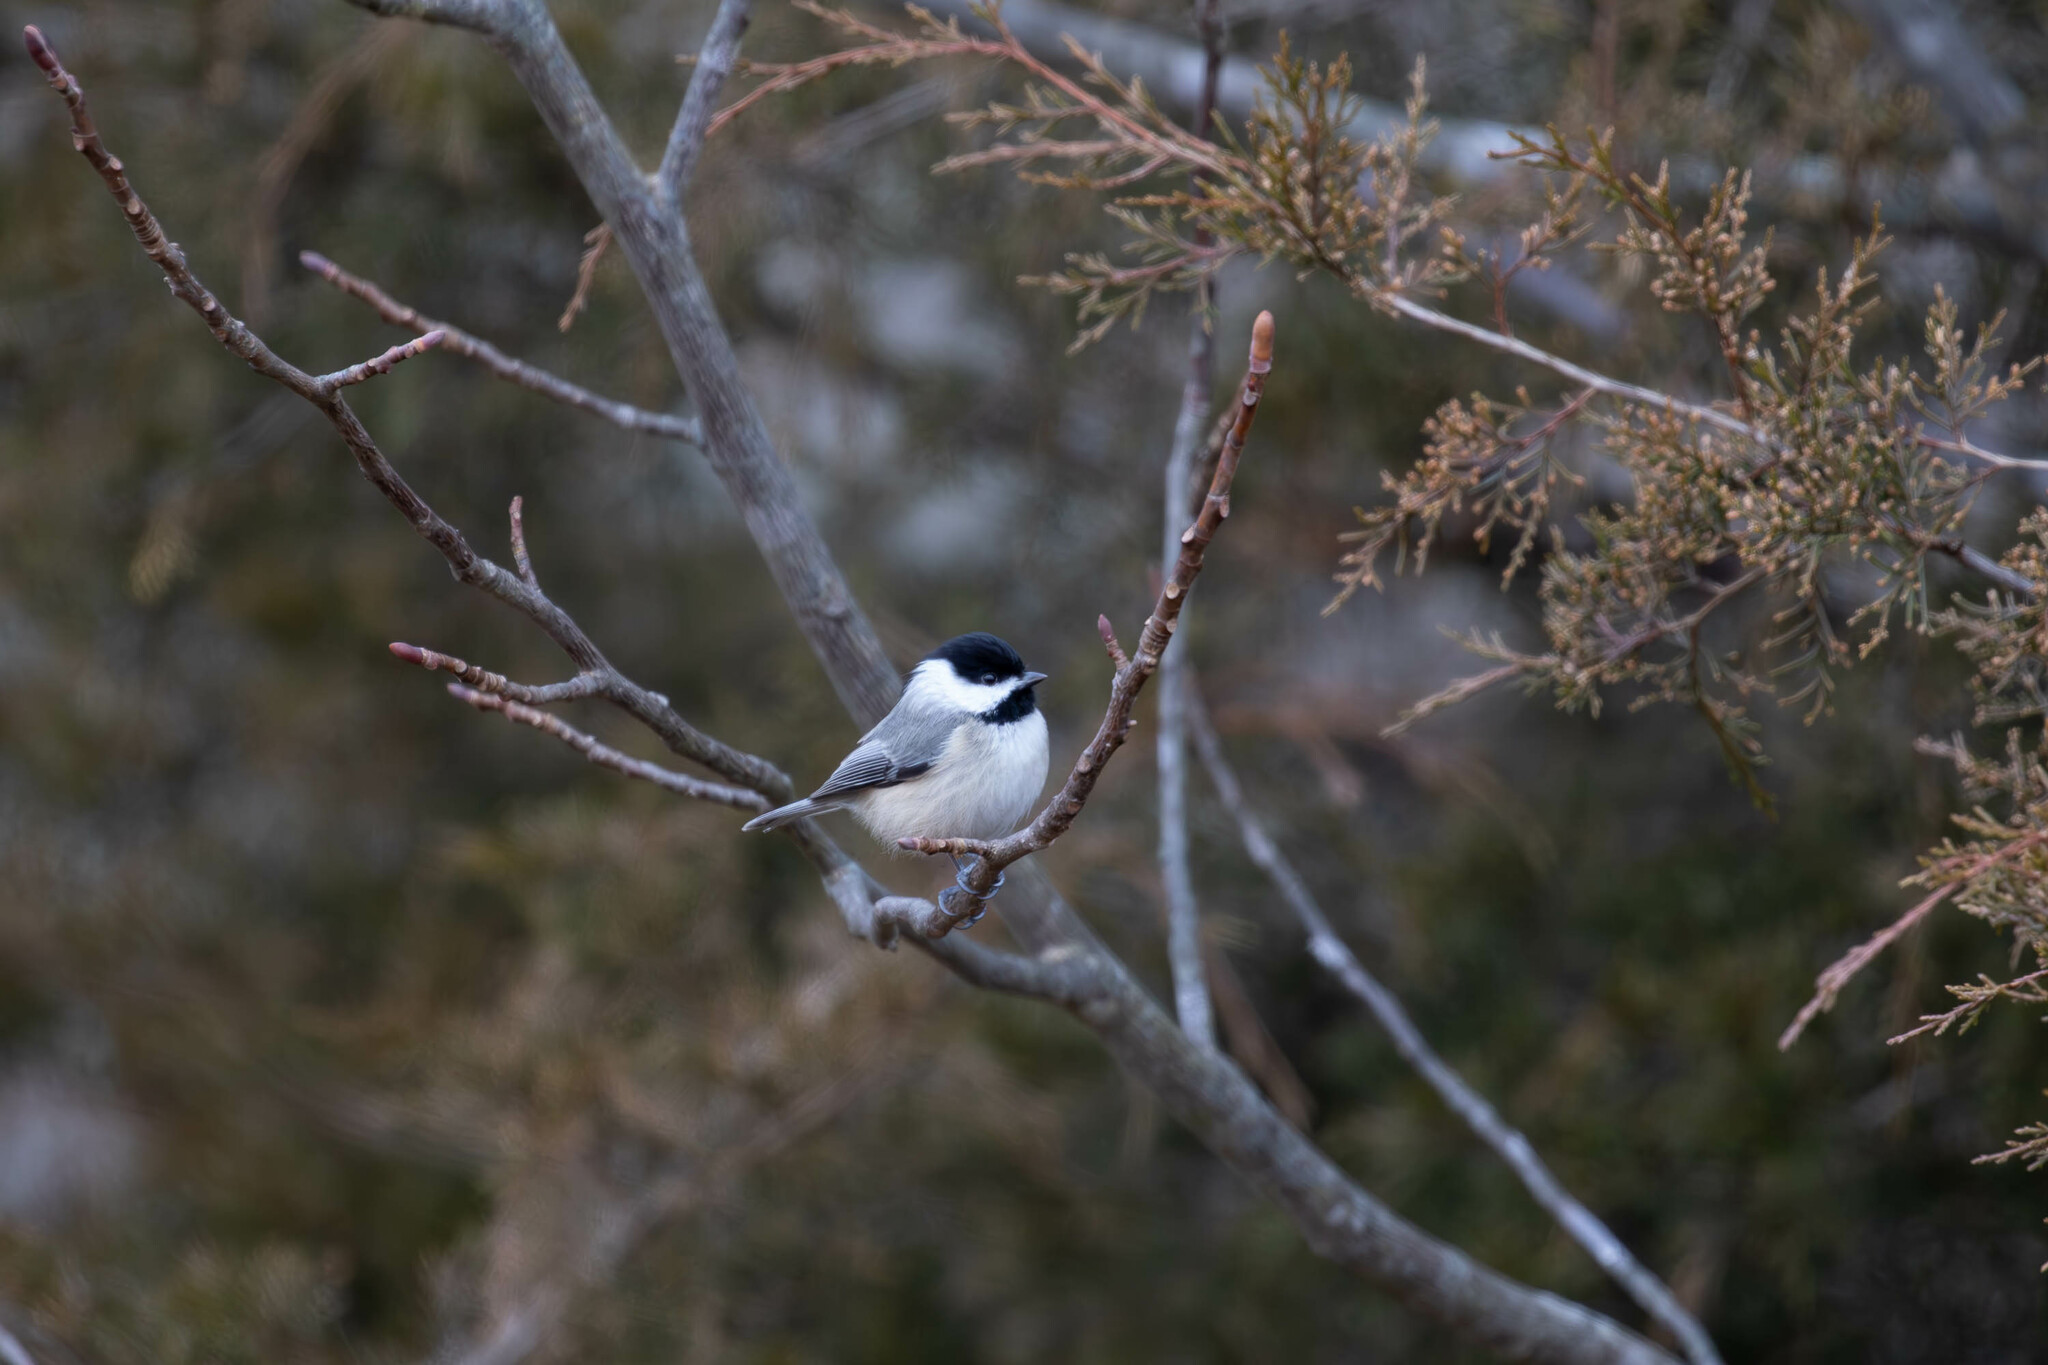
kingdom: Animalia
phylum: Chordata
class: Aves
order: Passeriformes
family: Paridae
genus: Poecile
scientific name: Poecile carolinensis
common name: Carolina chickadee
